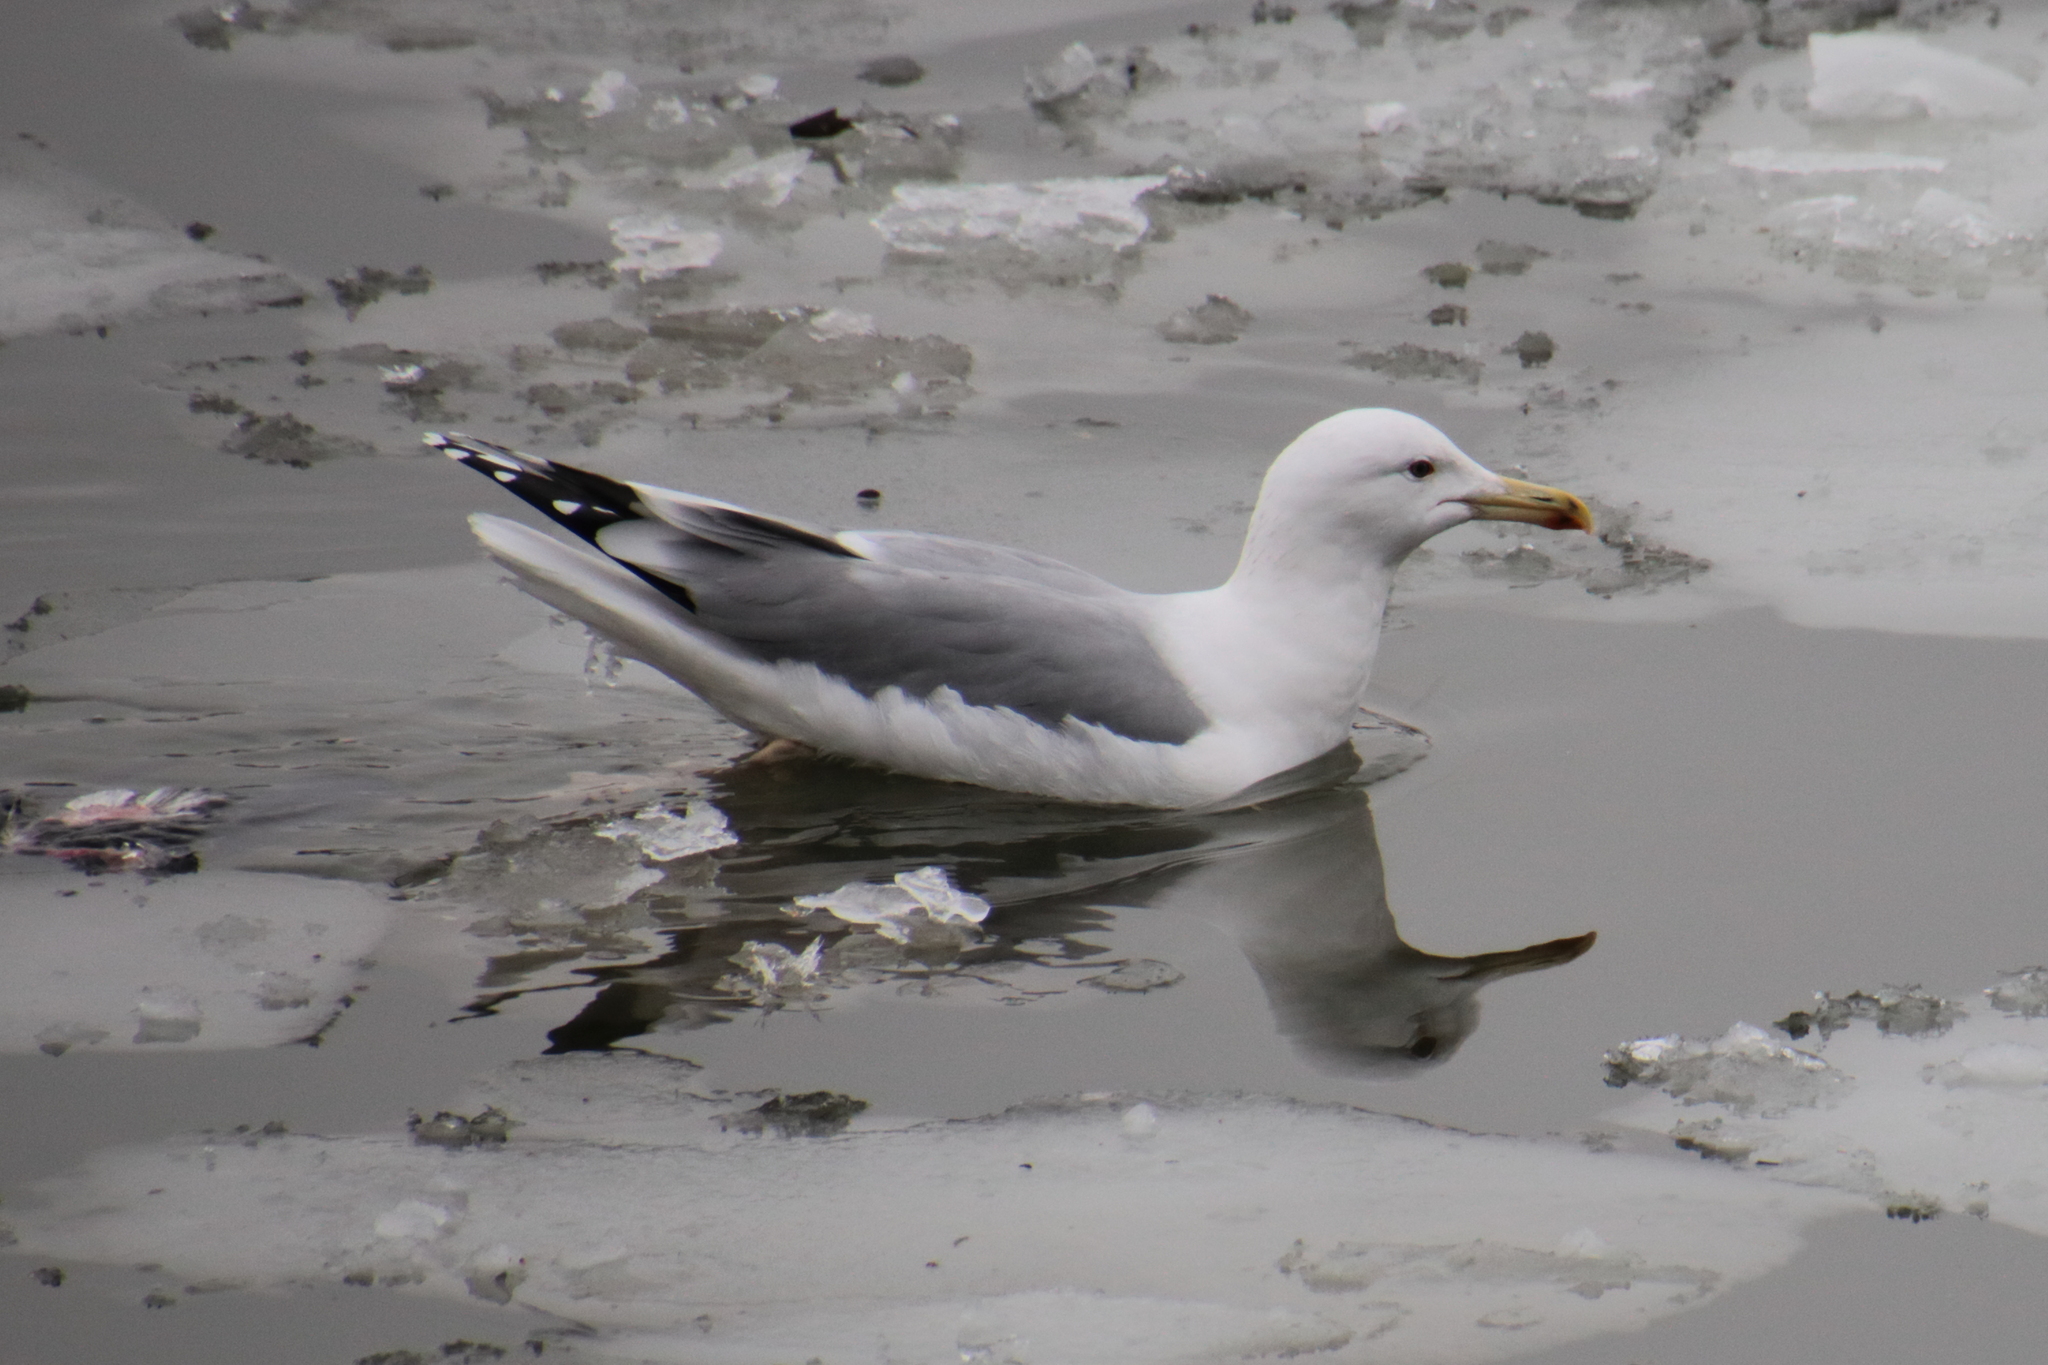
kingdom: Animalia
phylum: Chordata
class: Aves
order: Charadriiformes
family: Laridae
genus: Larus
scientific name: Larus cachinnans
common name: Caspian gull
